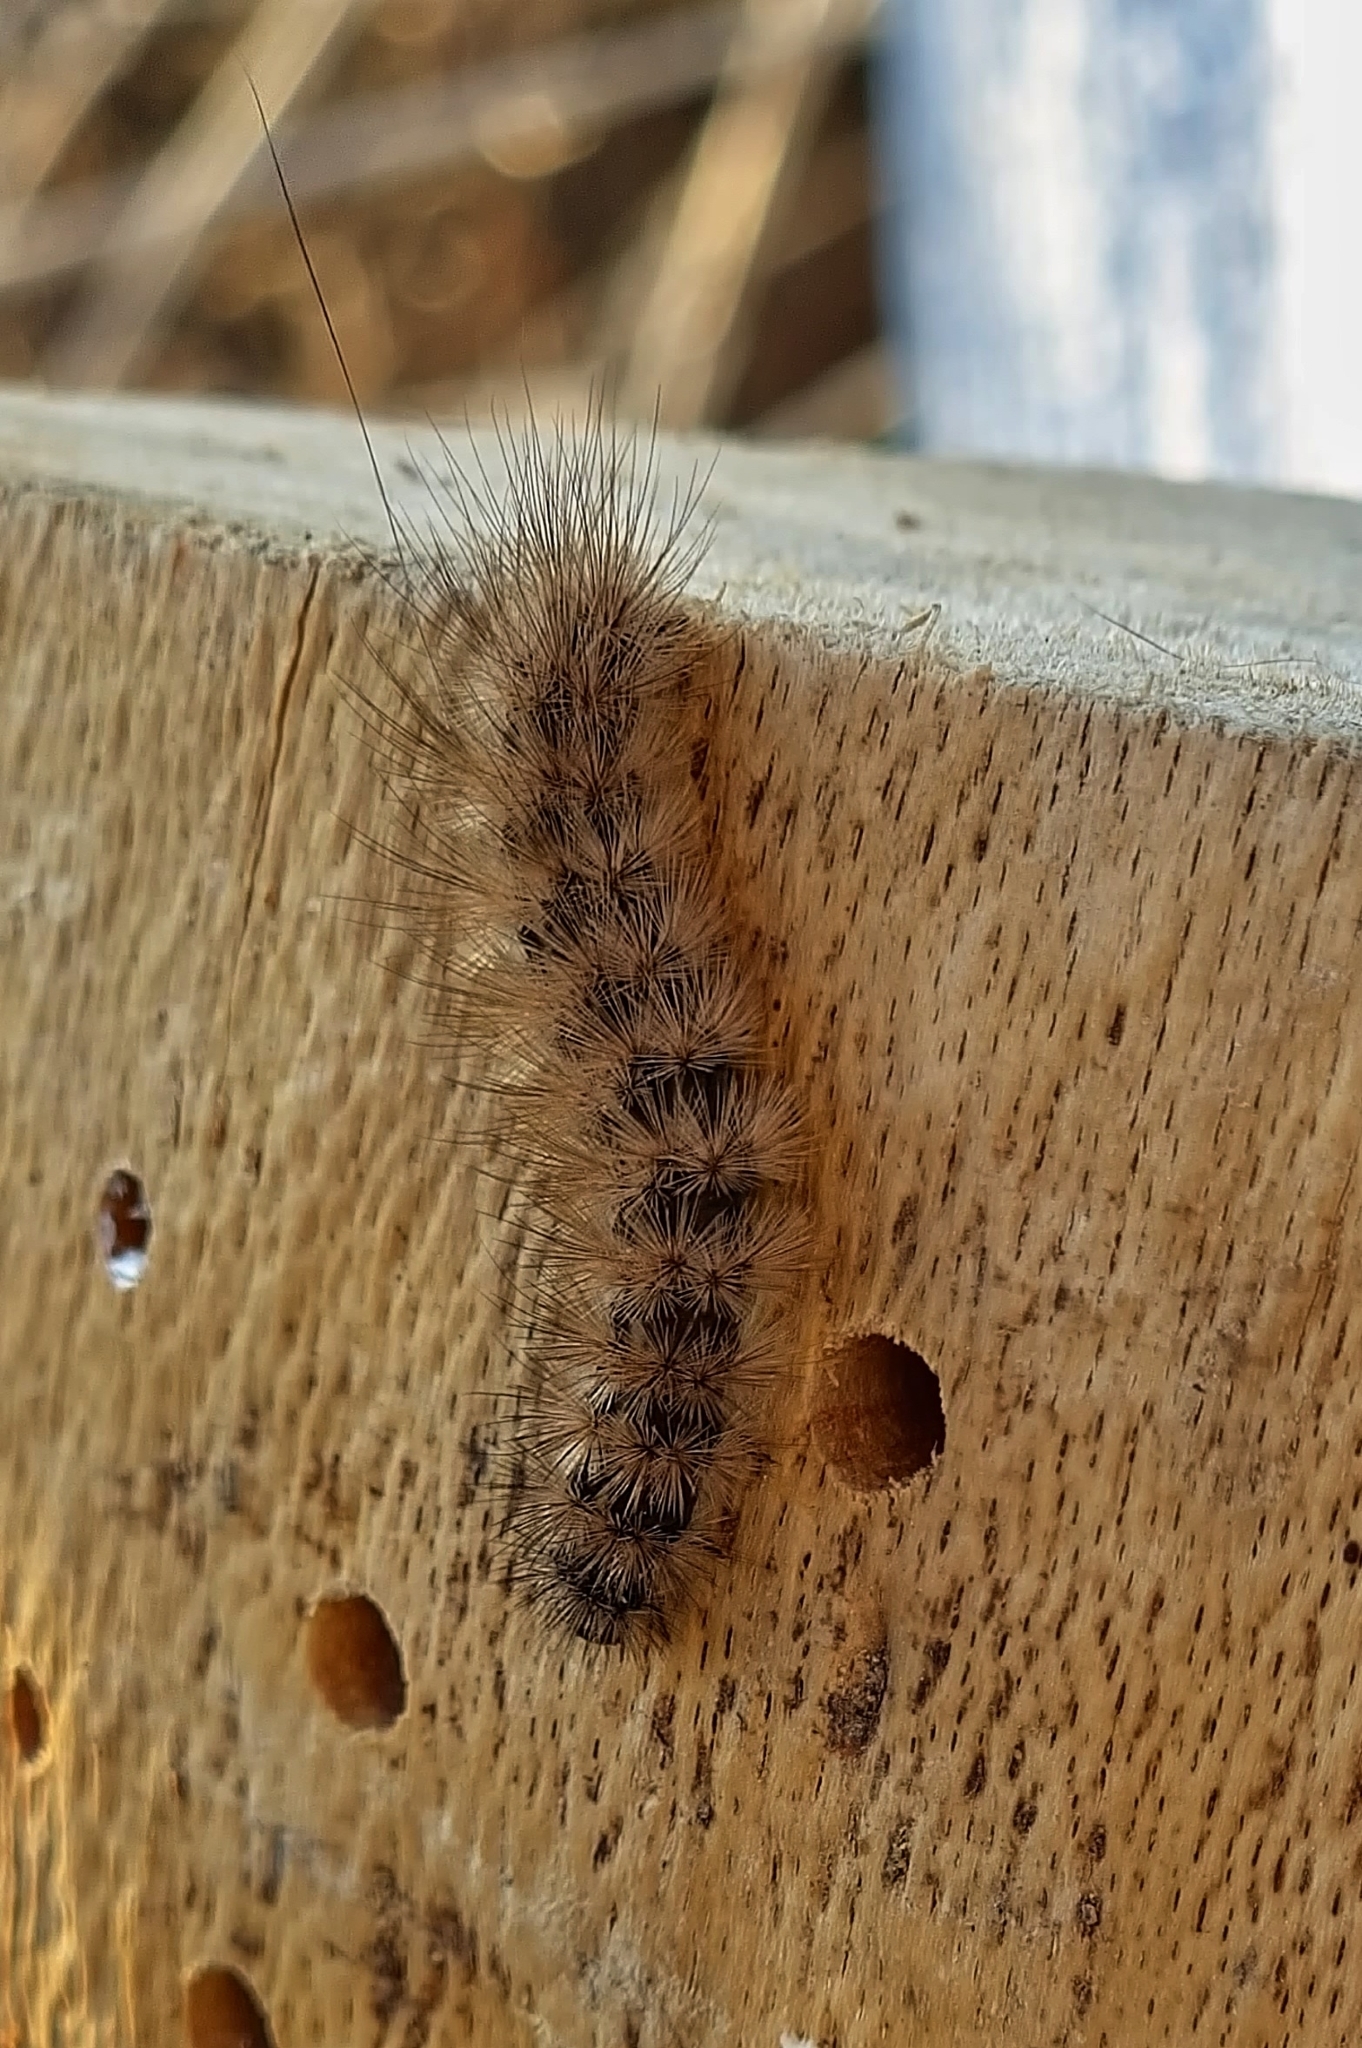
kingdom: Animalia
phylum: Arthropoda
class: Insecta
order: Lepidoptera
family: Erebidae
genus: Phragmatobia
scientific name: Phragmatobia fuliginosa
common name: Ruby tiger
